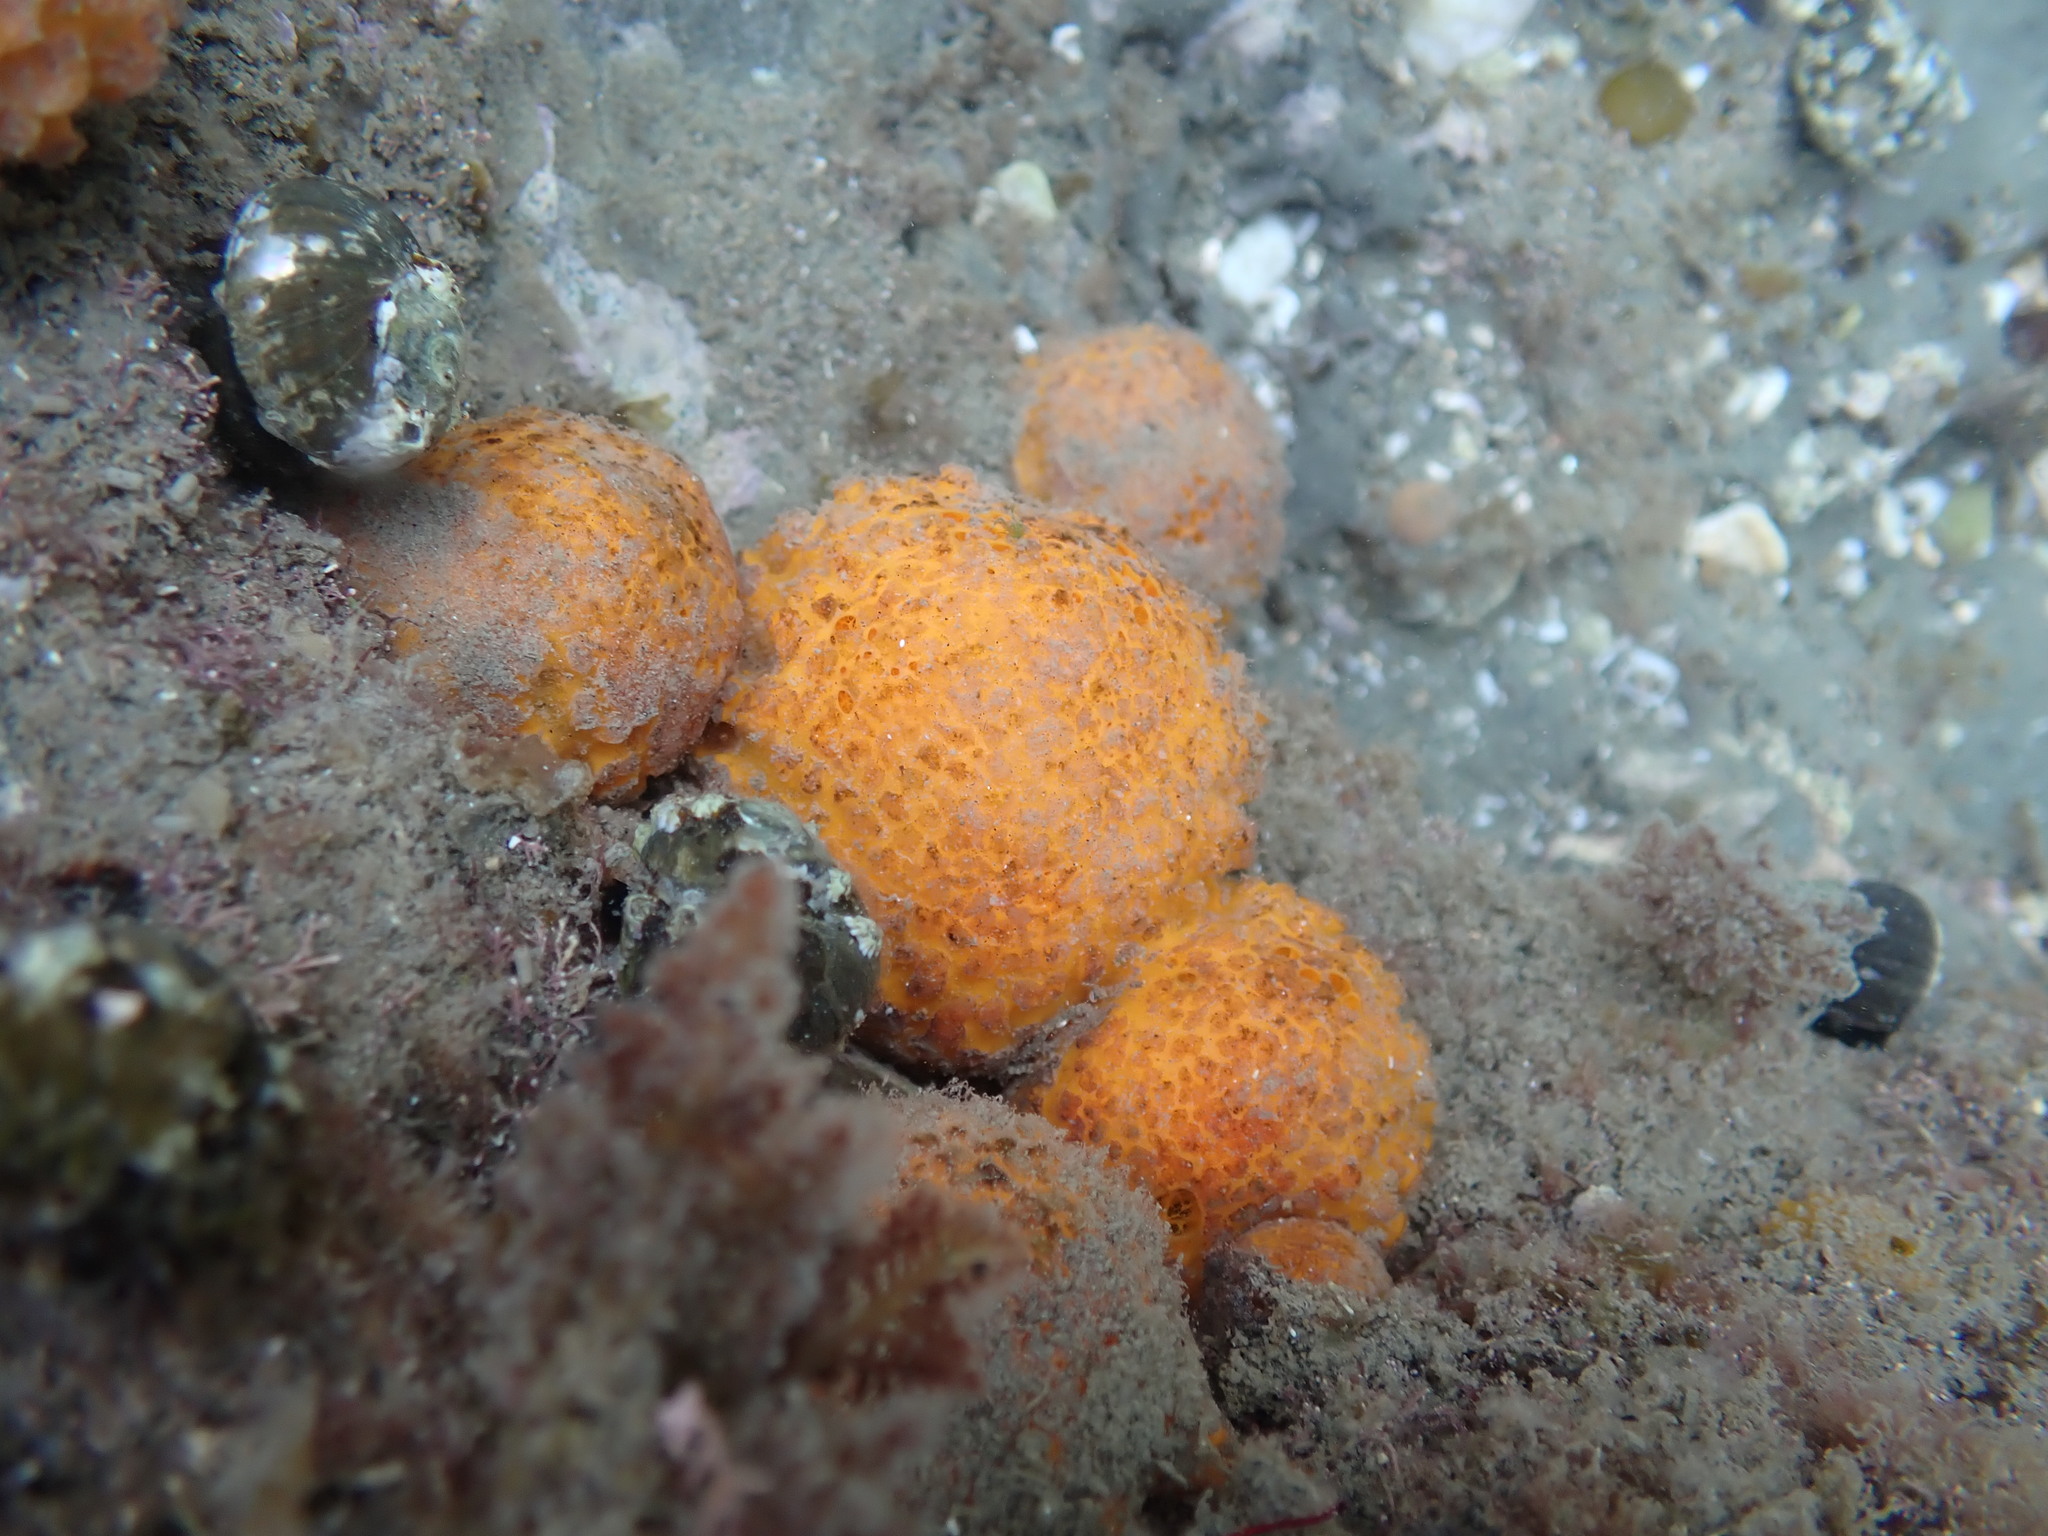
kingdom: Animalia
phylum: Porifera
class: Demospongiae
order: Tethyida
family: Tethyidae
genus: Tethya
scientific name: Tethya burtoni
